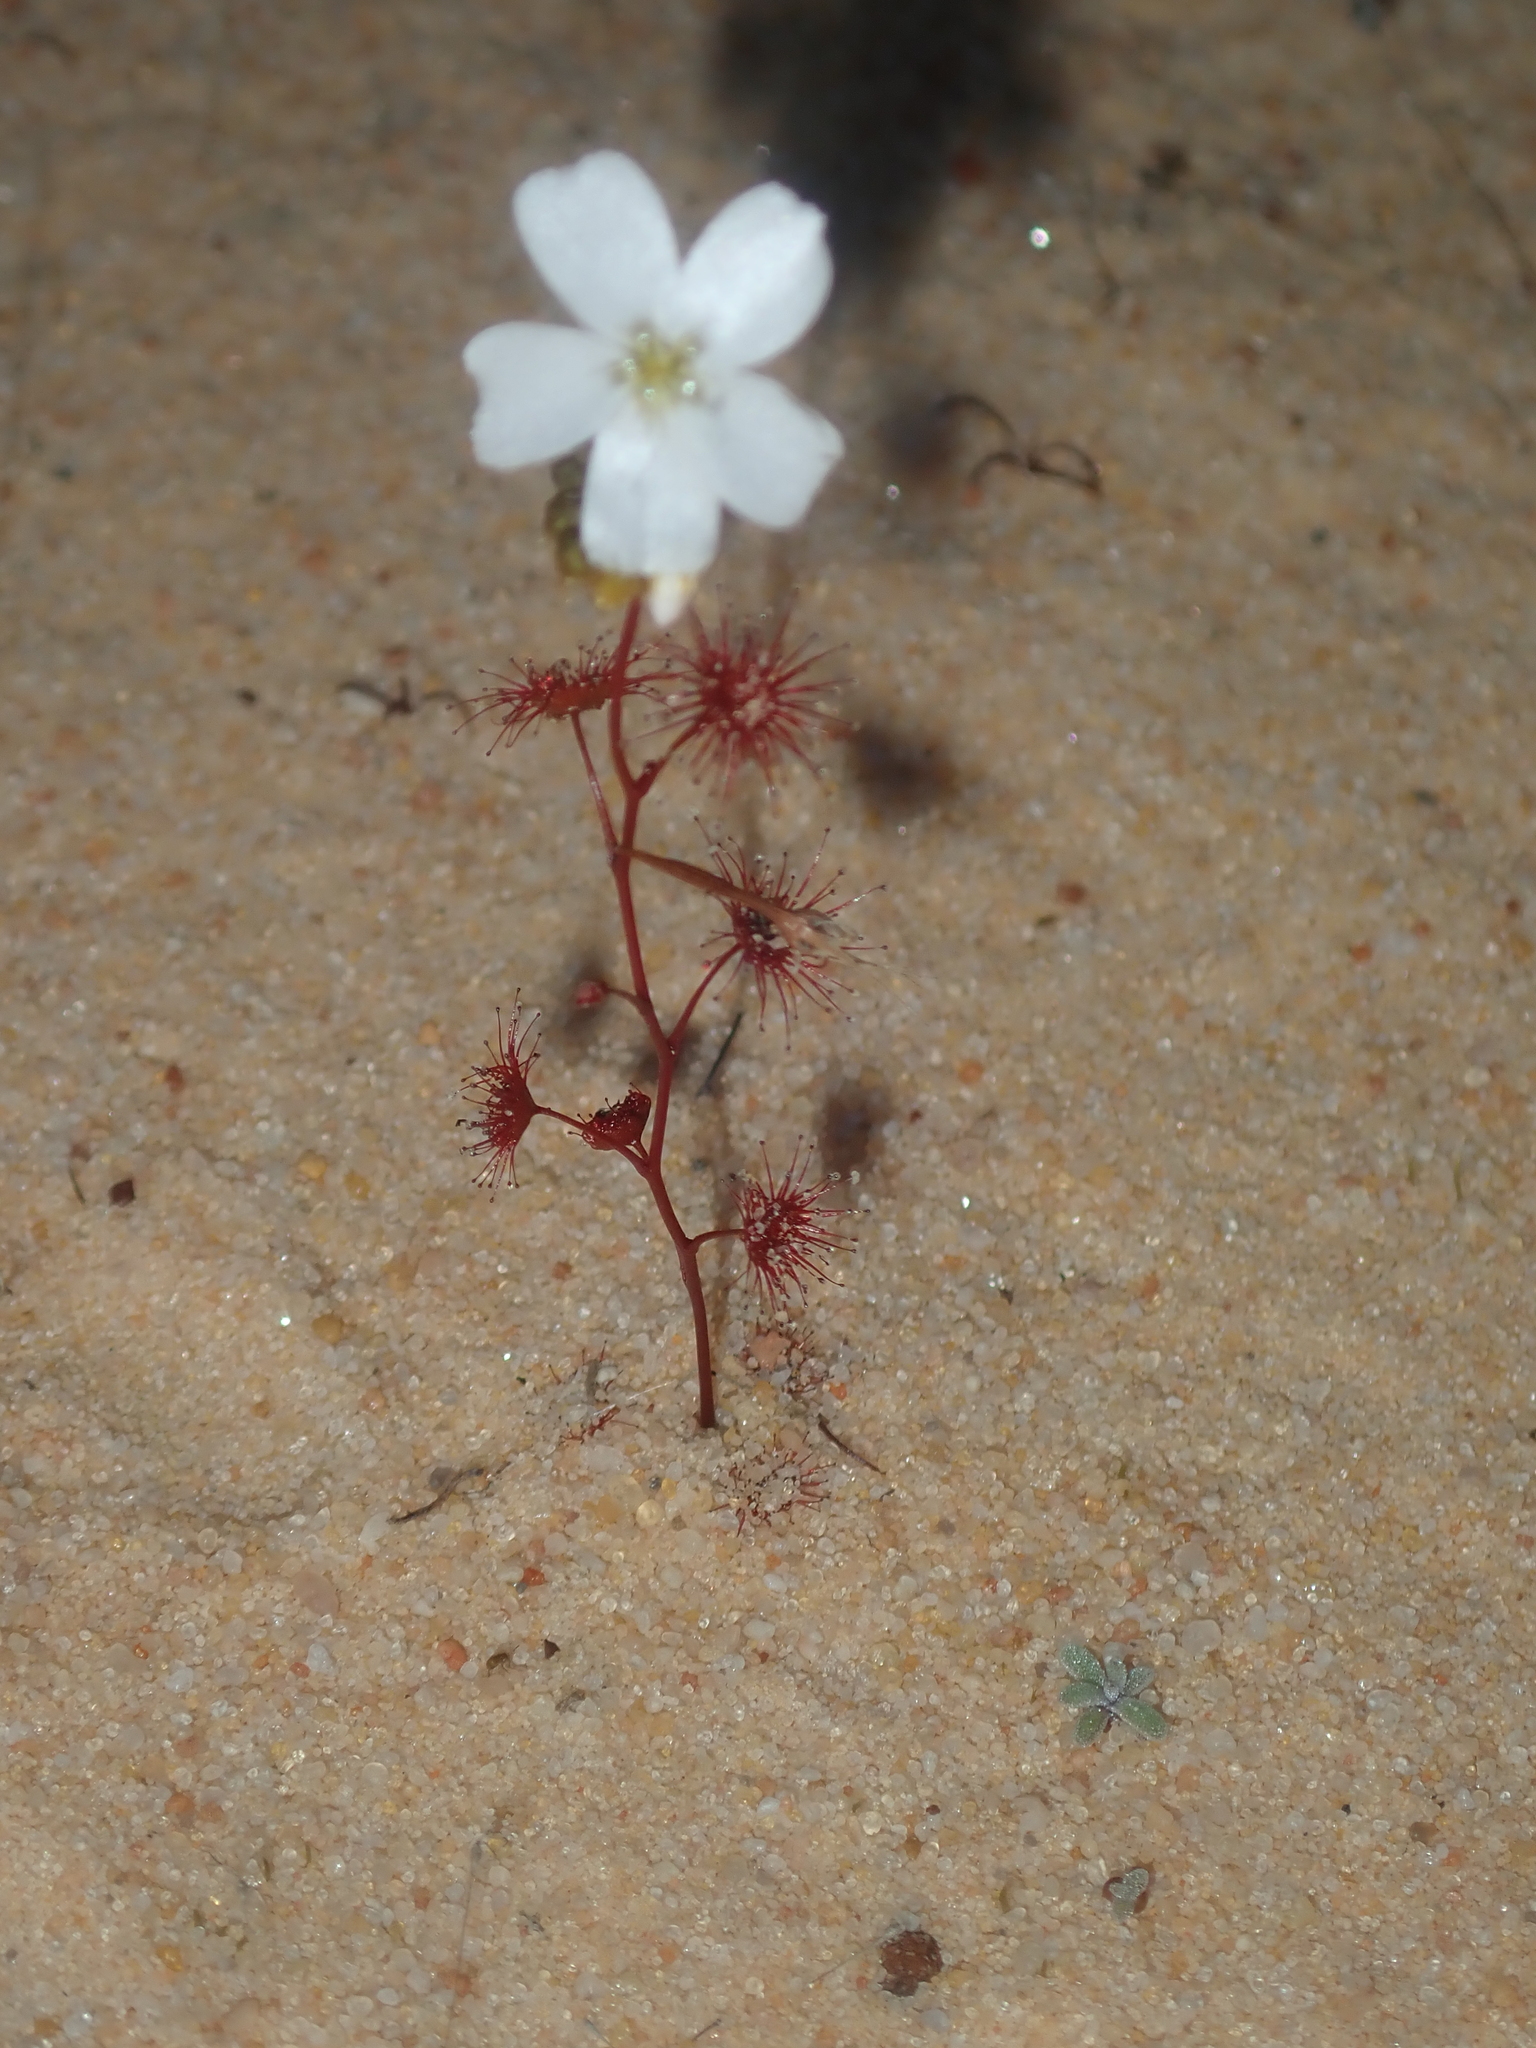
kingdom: Plantae
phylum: Tracheophyta
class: Magnoliopsida
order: Caryophyllales
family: Droseraceae
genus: Drosera
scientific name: Drosera radicans
